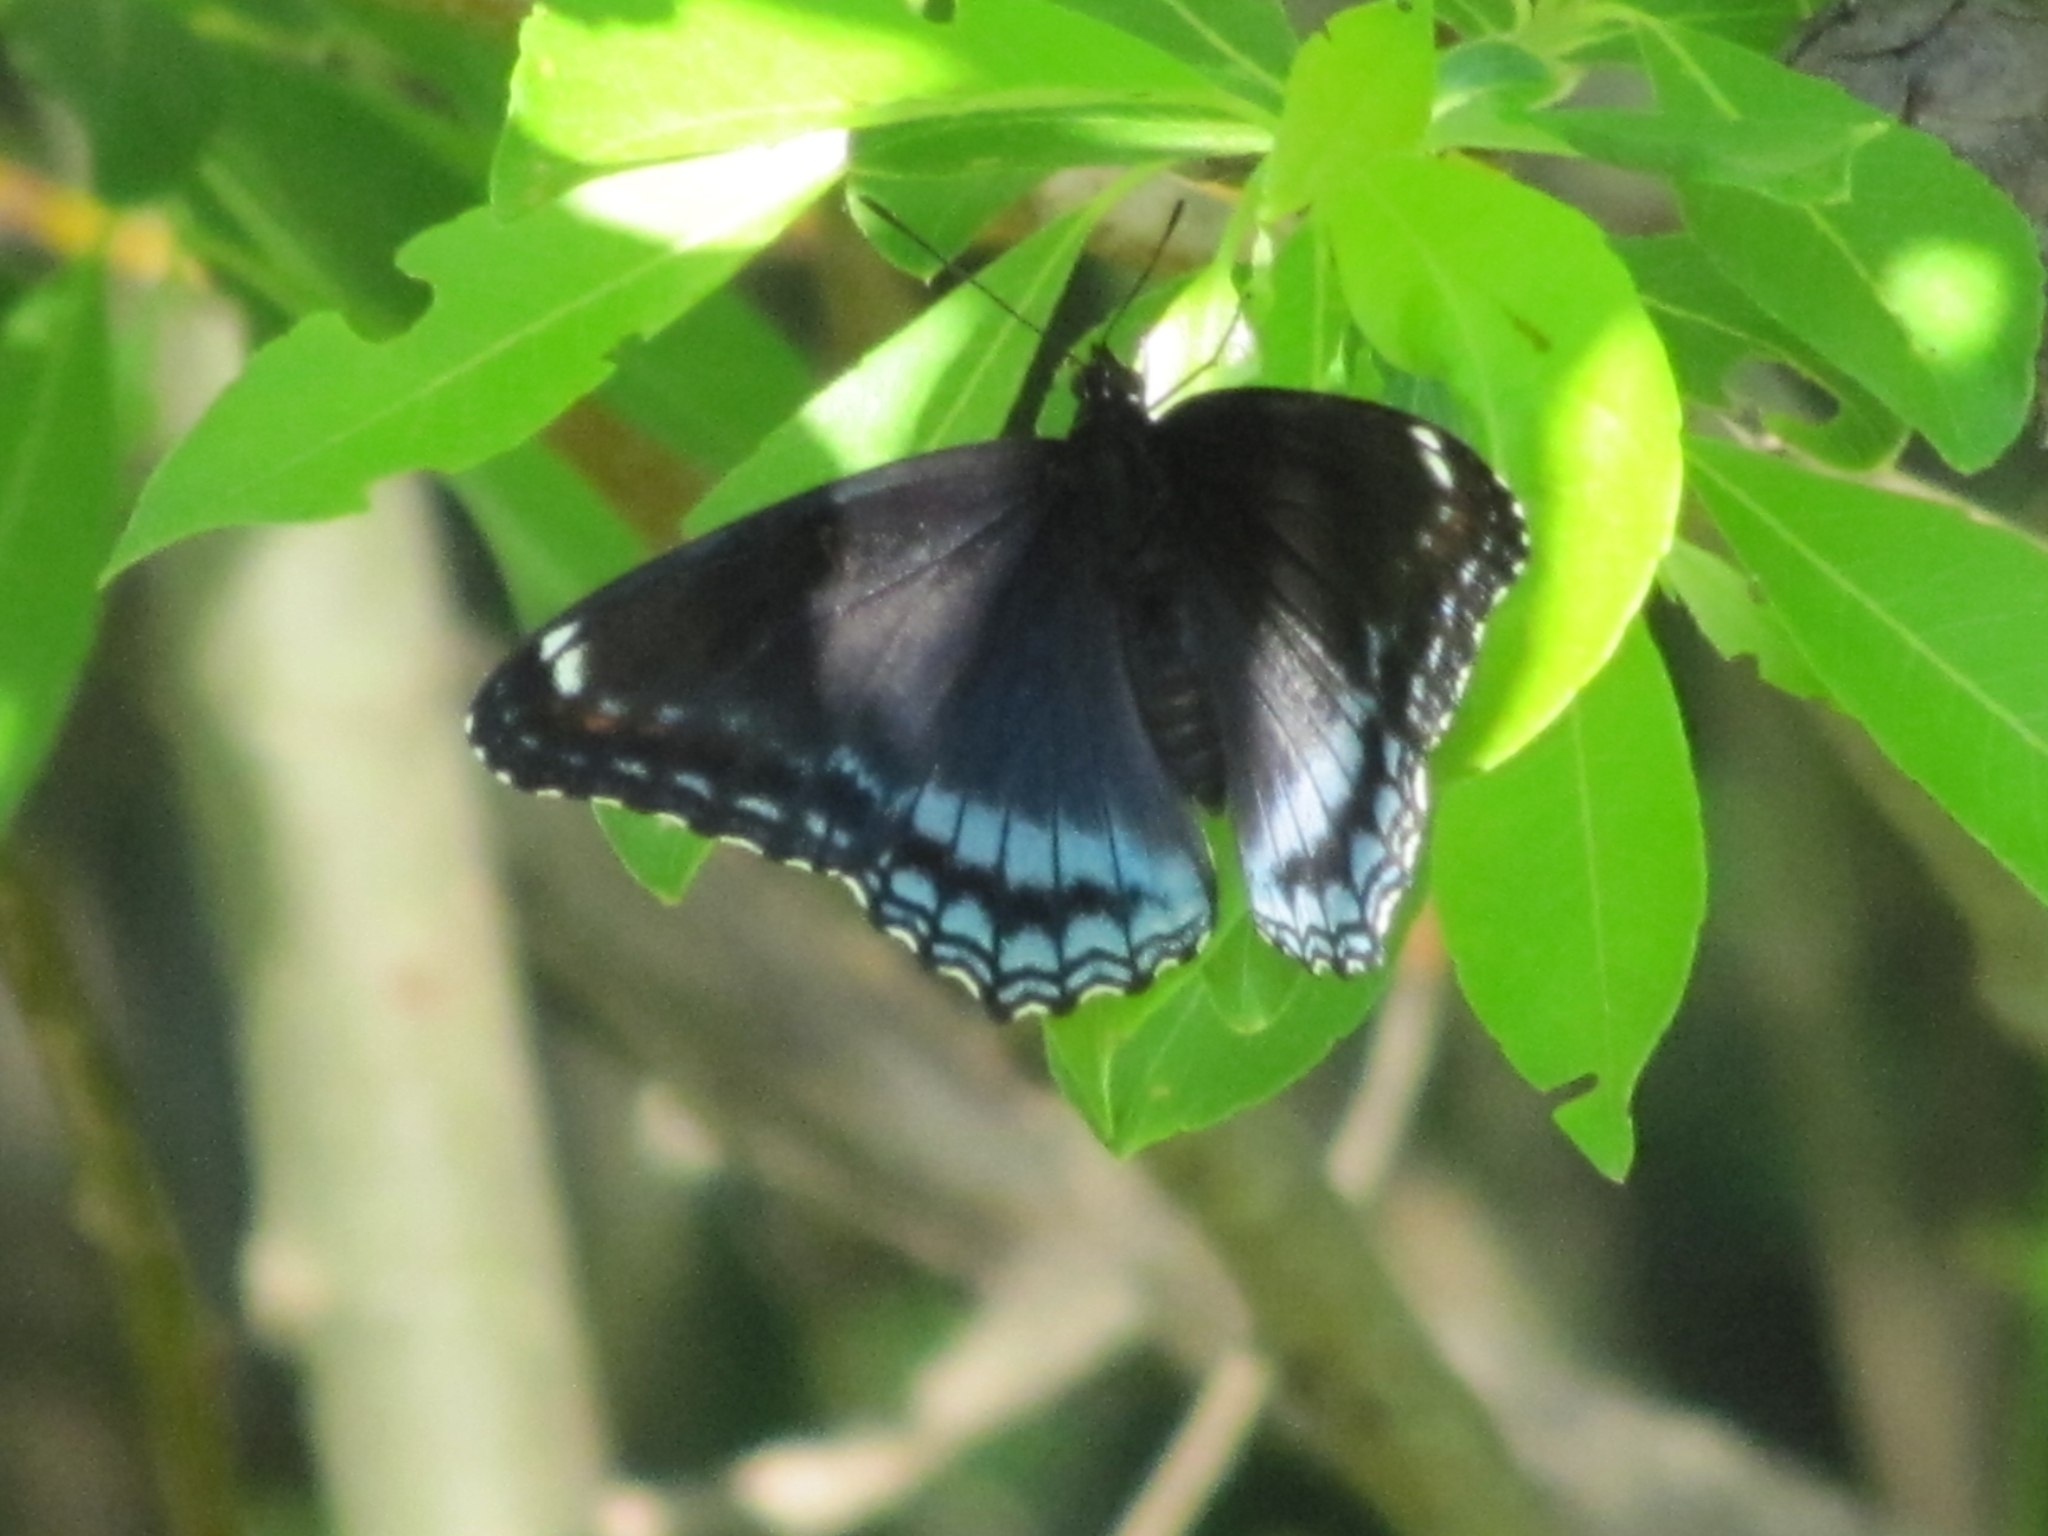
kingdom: Animalia
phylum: Arthropoda
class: Insecta
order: Lepidoptera
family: Nymphalidae
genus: Limenitis
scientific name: Limenitis astyanax
